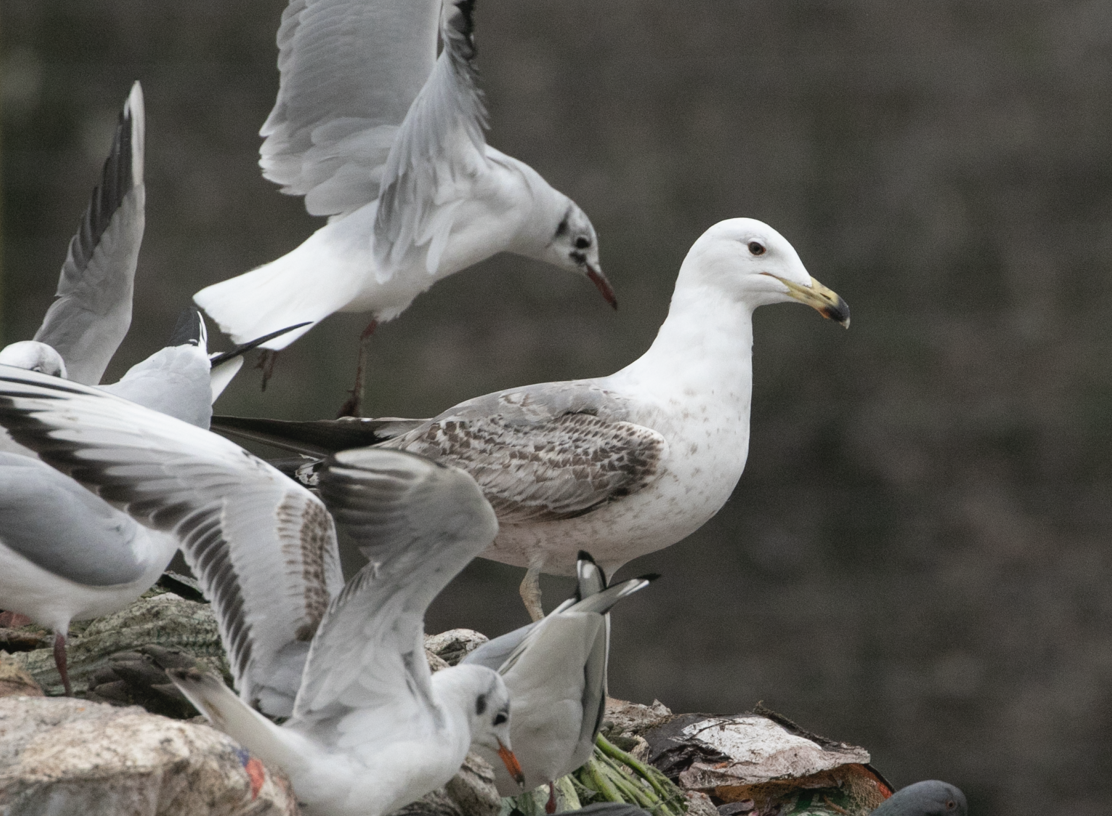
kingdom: Animalia
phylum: Chordata
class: Aves
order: Charadriiformes
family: Laridae
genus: Larus
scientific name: Larus michahellis
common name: Yellow-legged gull
